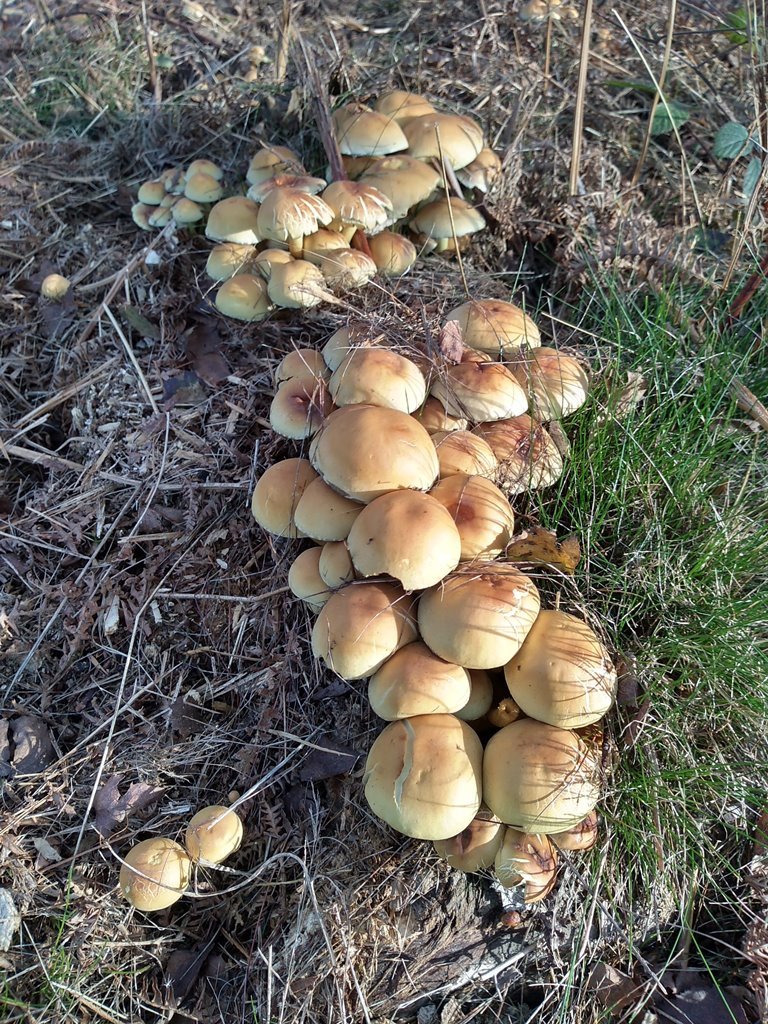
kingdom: Fungi
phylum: Basidiomycota
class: Agaricomycetes
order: Agaricales
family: Strophariaceae
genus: Hypholoma
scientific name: Hypholoma fasciculare
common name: Sulphur tuft
